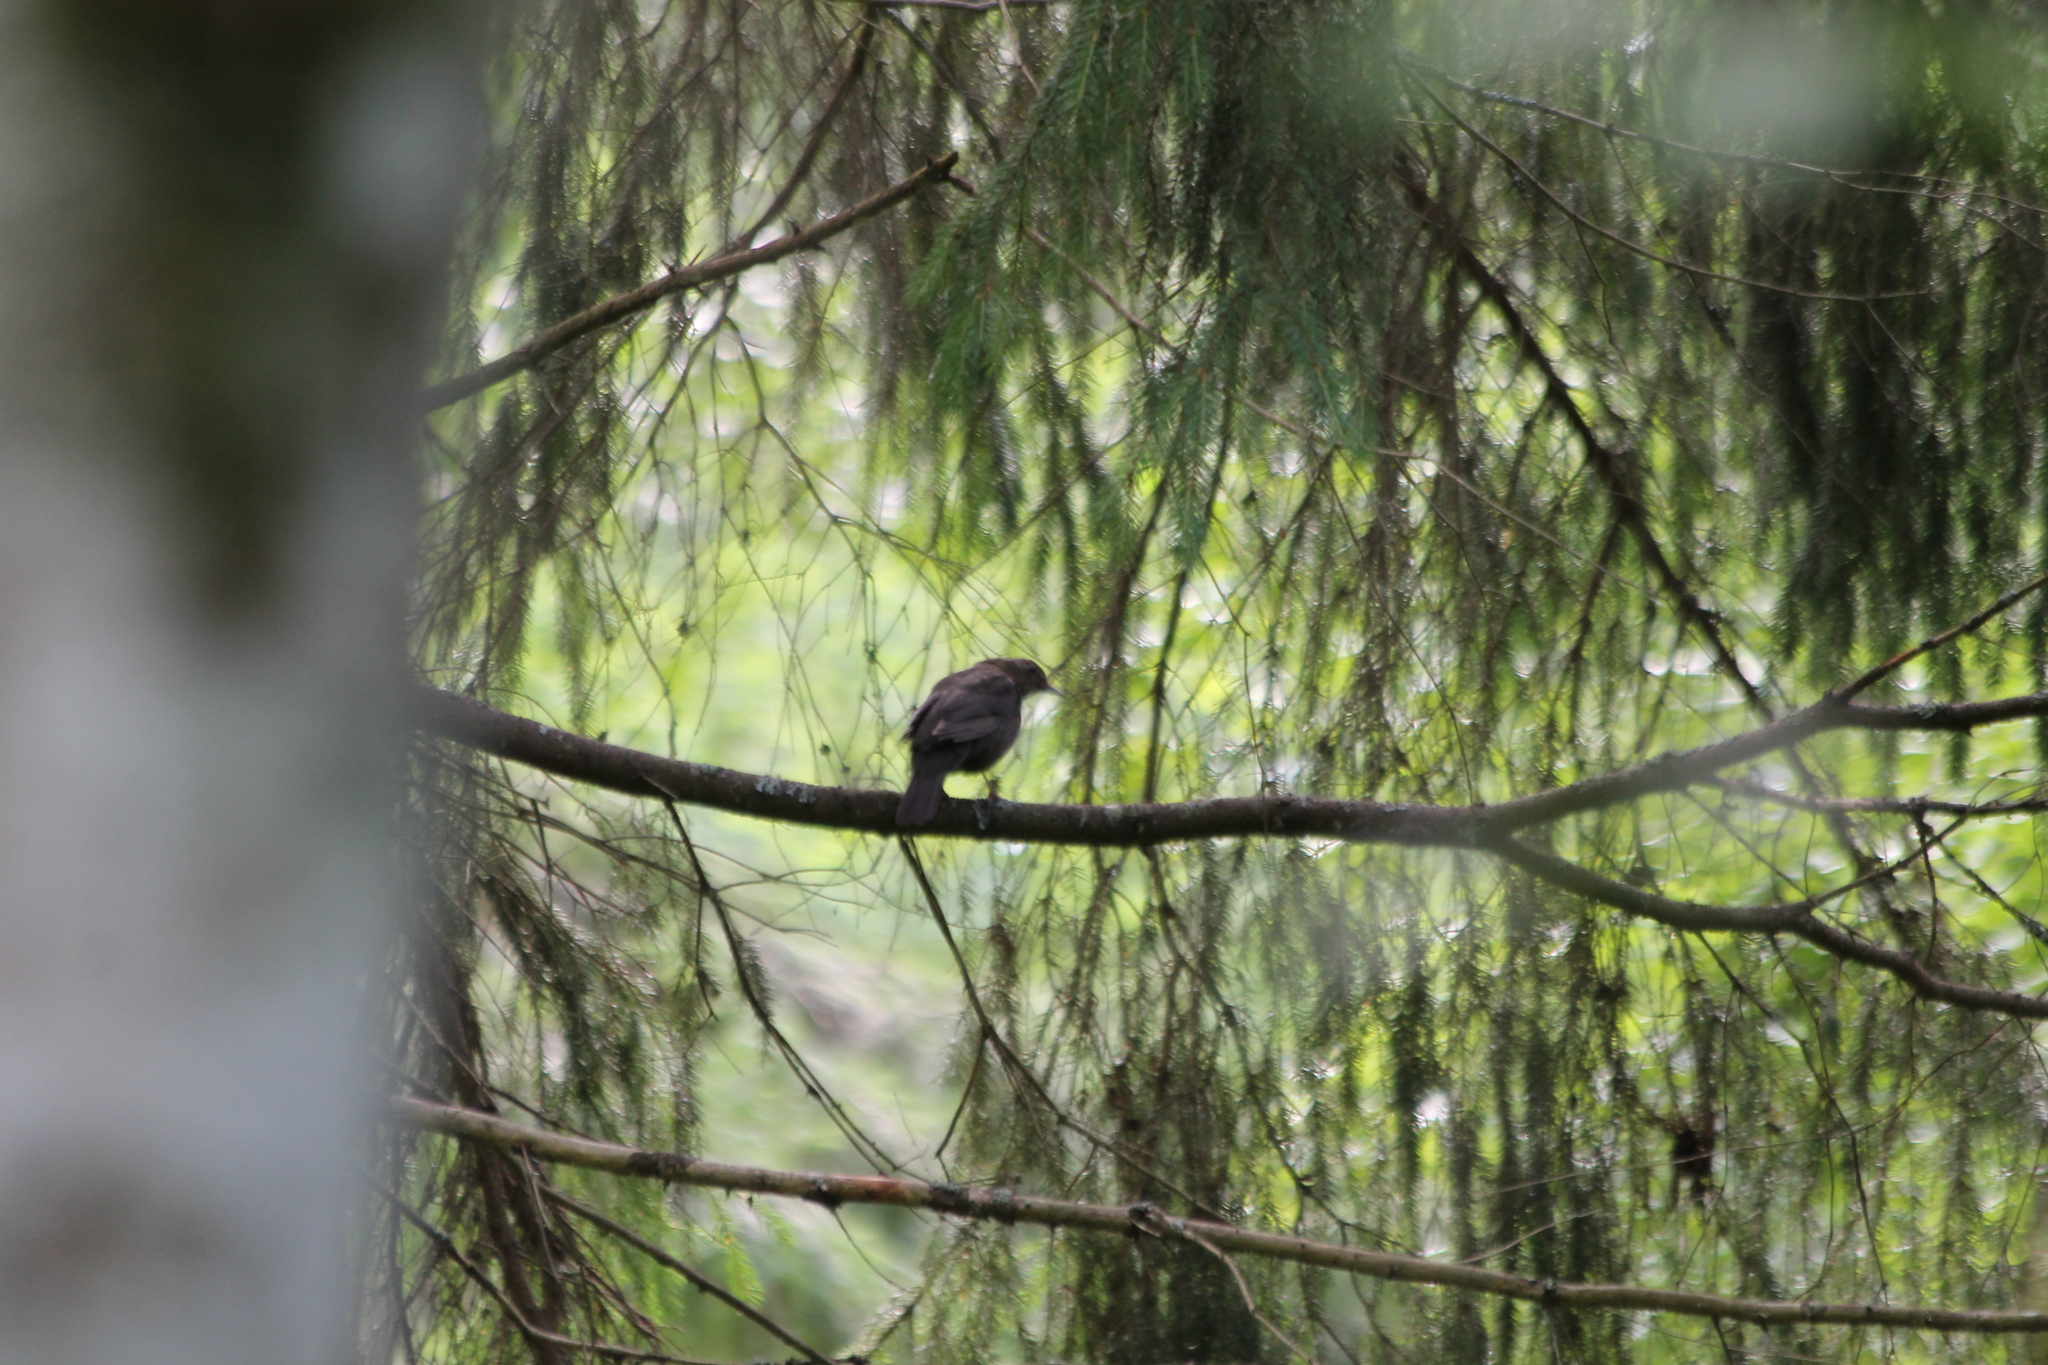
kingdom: Animalia
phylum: Chordata
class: Aves
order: Passeriformes
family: Turdidae
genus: Turdus
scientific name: Turdus merula
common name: Common blackbird
